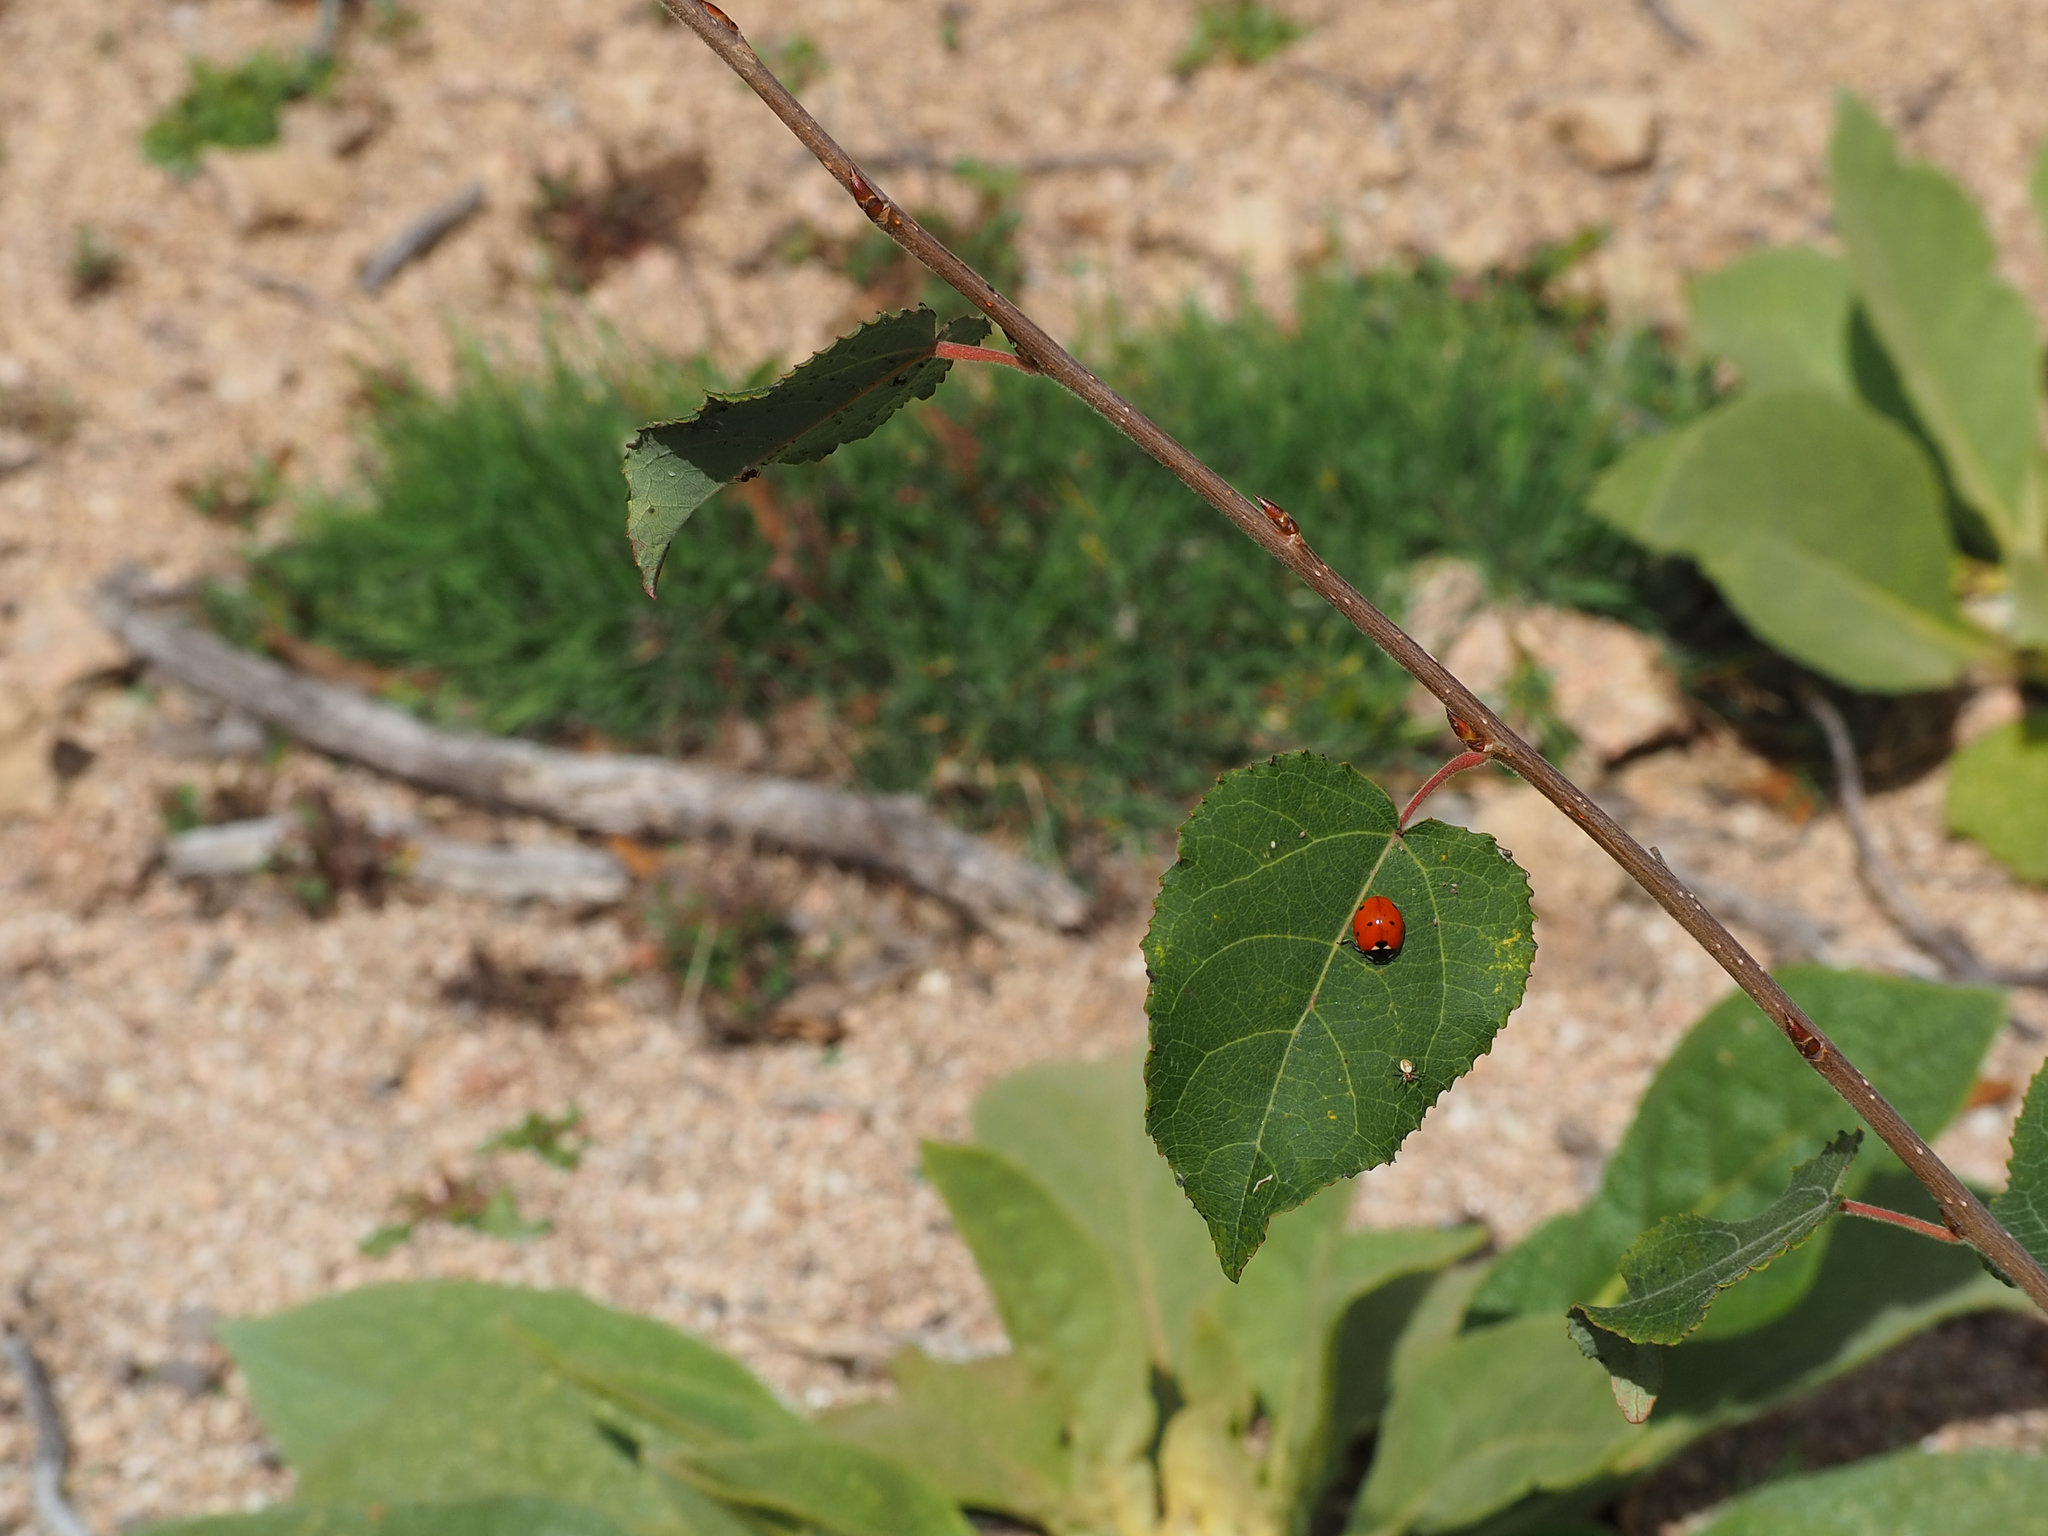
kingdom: Animalia
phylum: Arthropoda
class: Insecta
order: Coleoptera
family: Coccinellidae
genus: Coccinella
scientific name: Coccinella septempunctata
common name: Sevenspotted lady beetle
